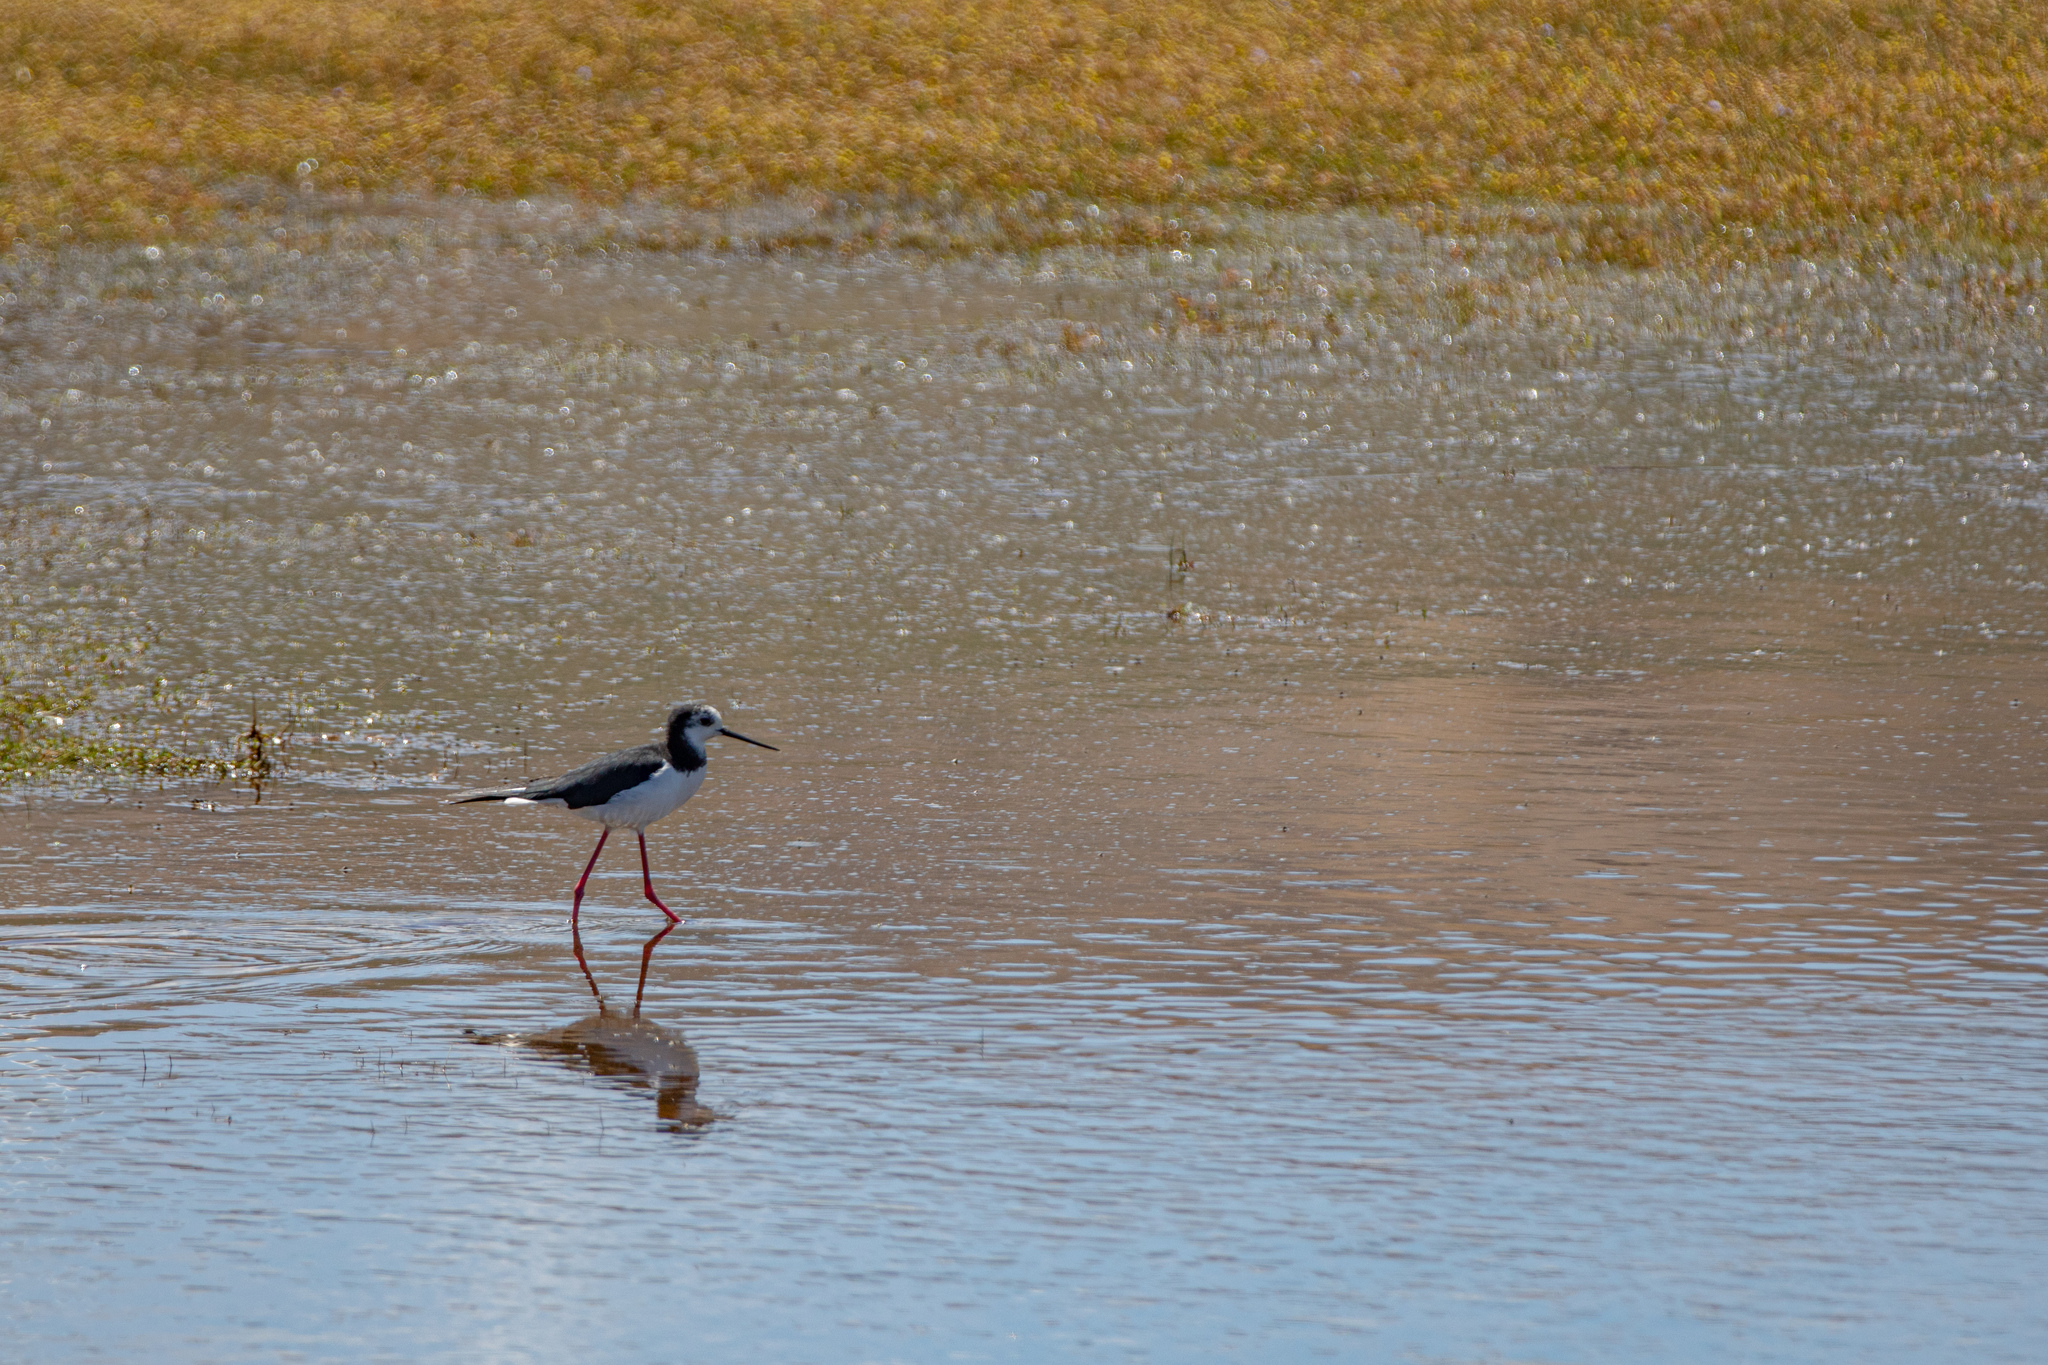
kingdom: Animalia
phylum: Chordata
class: Aves
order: Charadriiformes
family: Recurvirostridae
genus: Himantopus
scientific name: Himantopus
